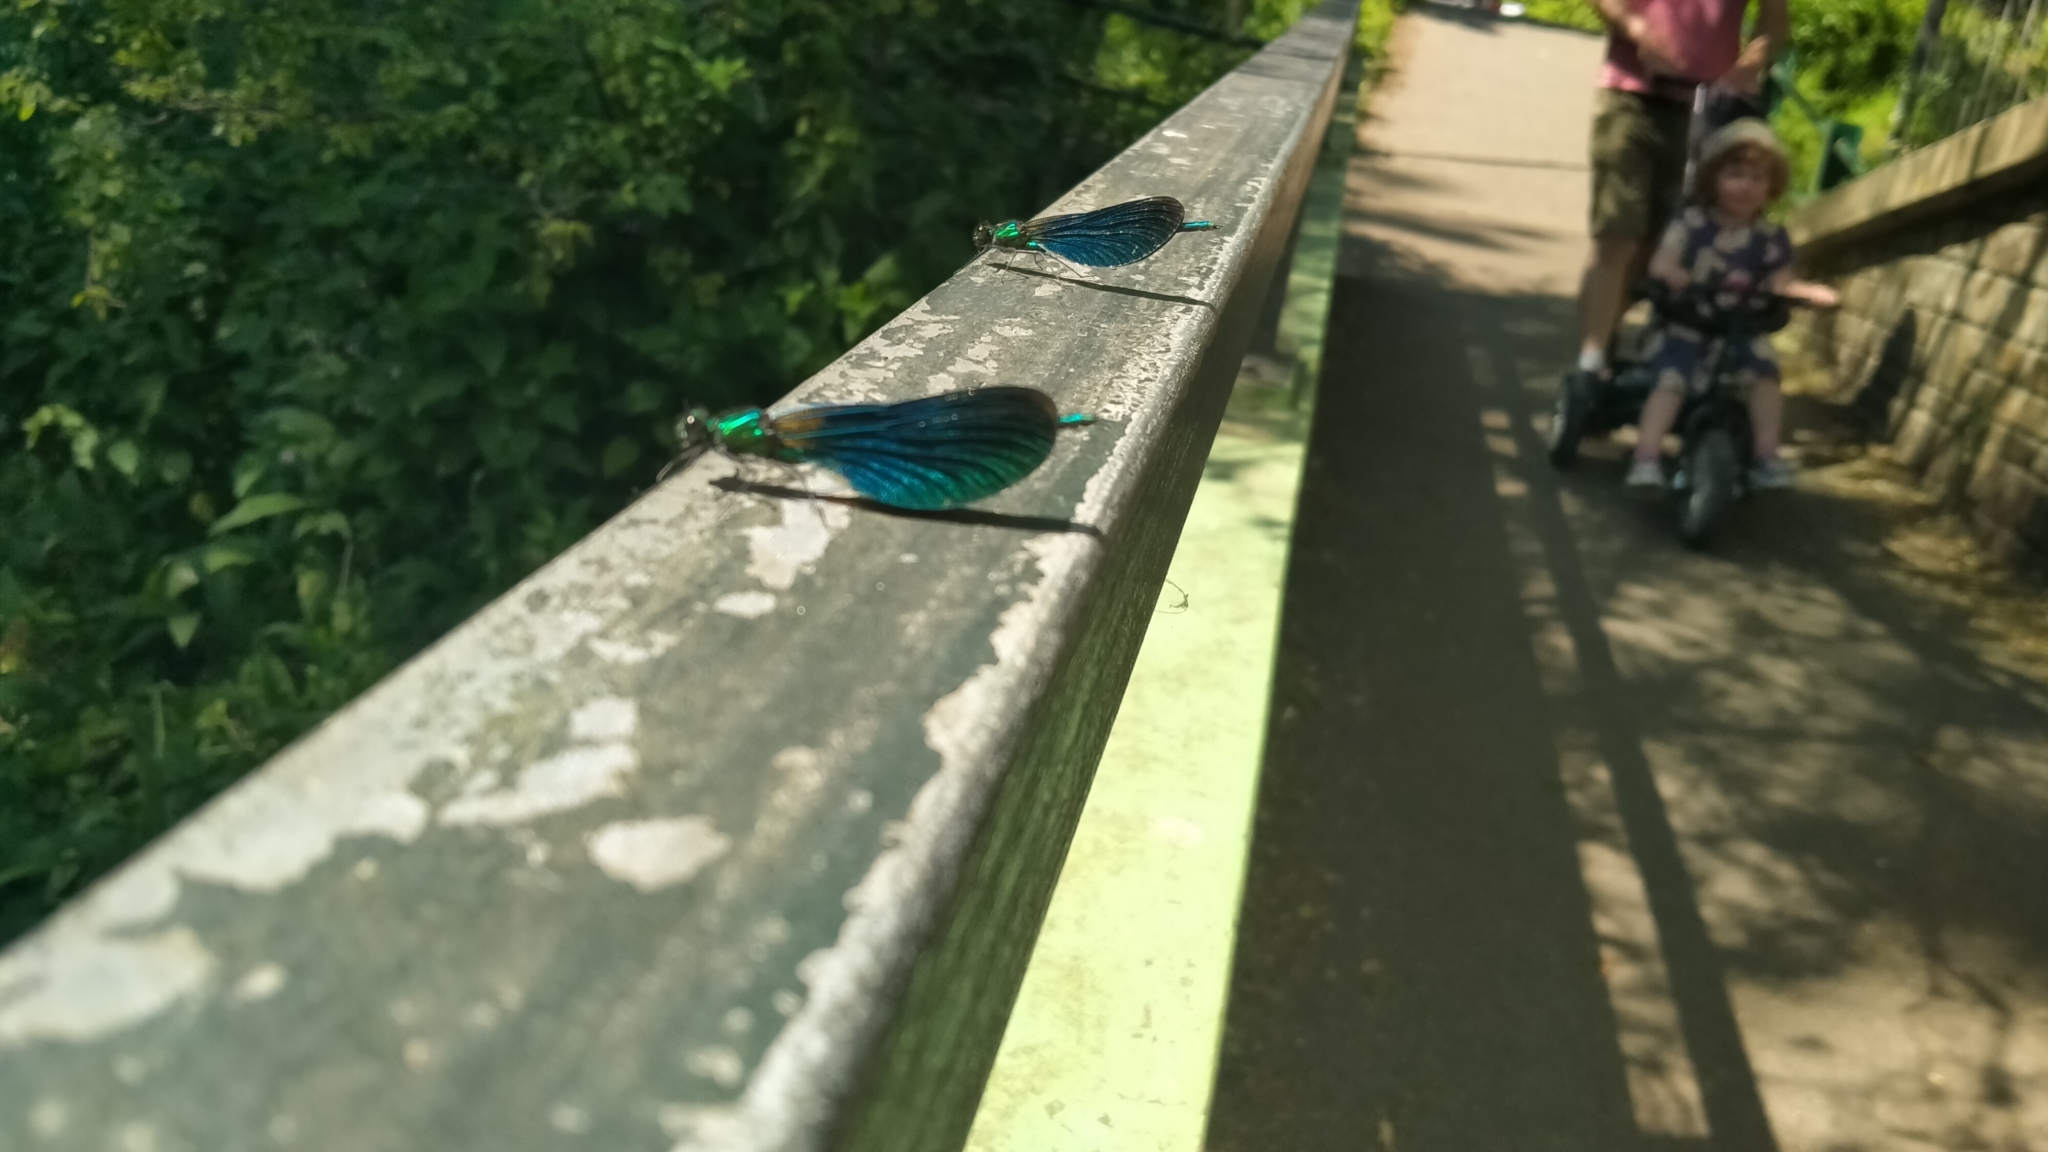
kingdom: Animalia
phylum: Arthropoda
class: Insecta
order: Odonata
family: Calopterygidae
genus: Calopteryx
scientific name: Calopteryx virgo
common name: Beautiful demoiselle
